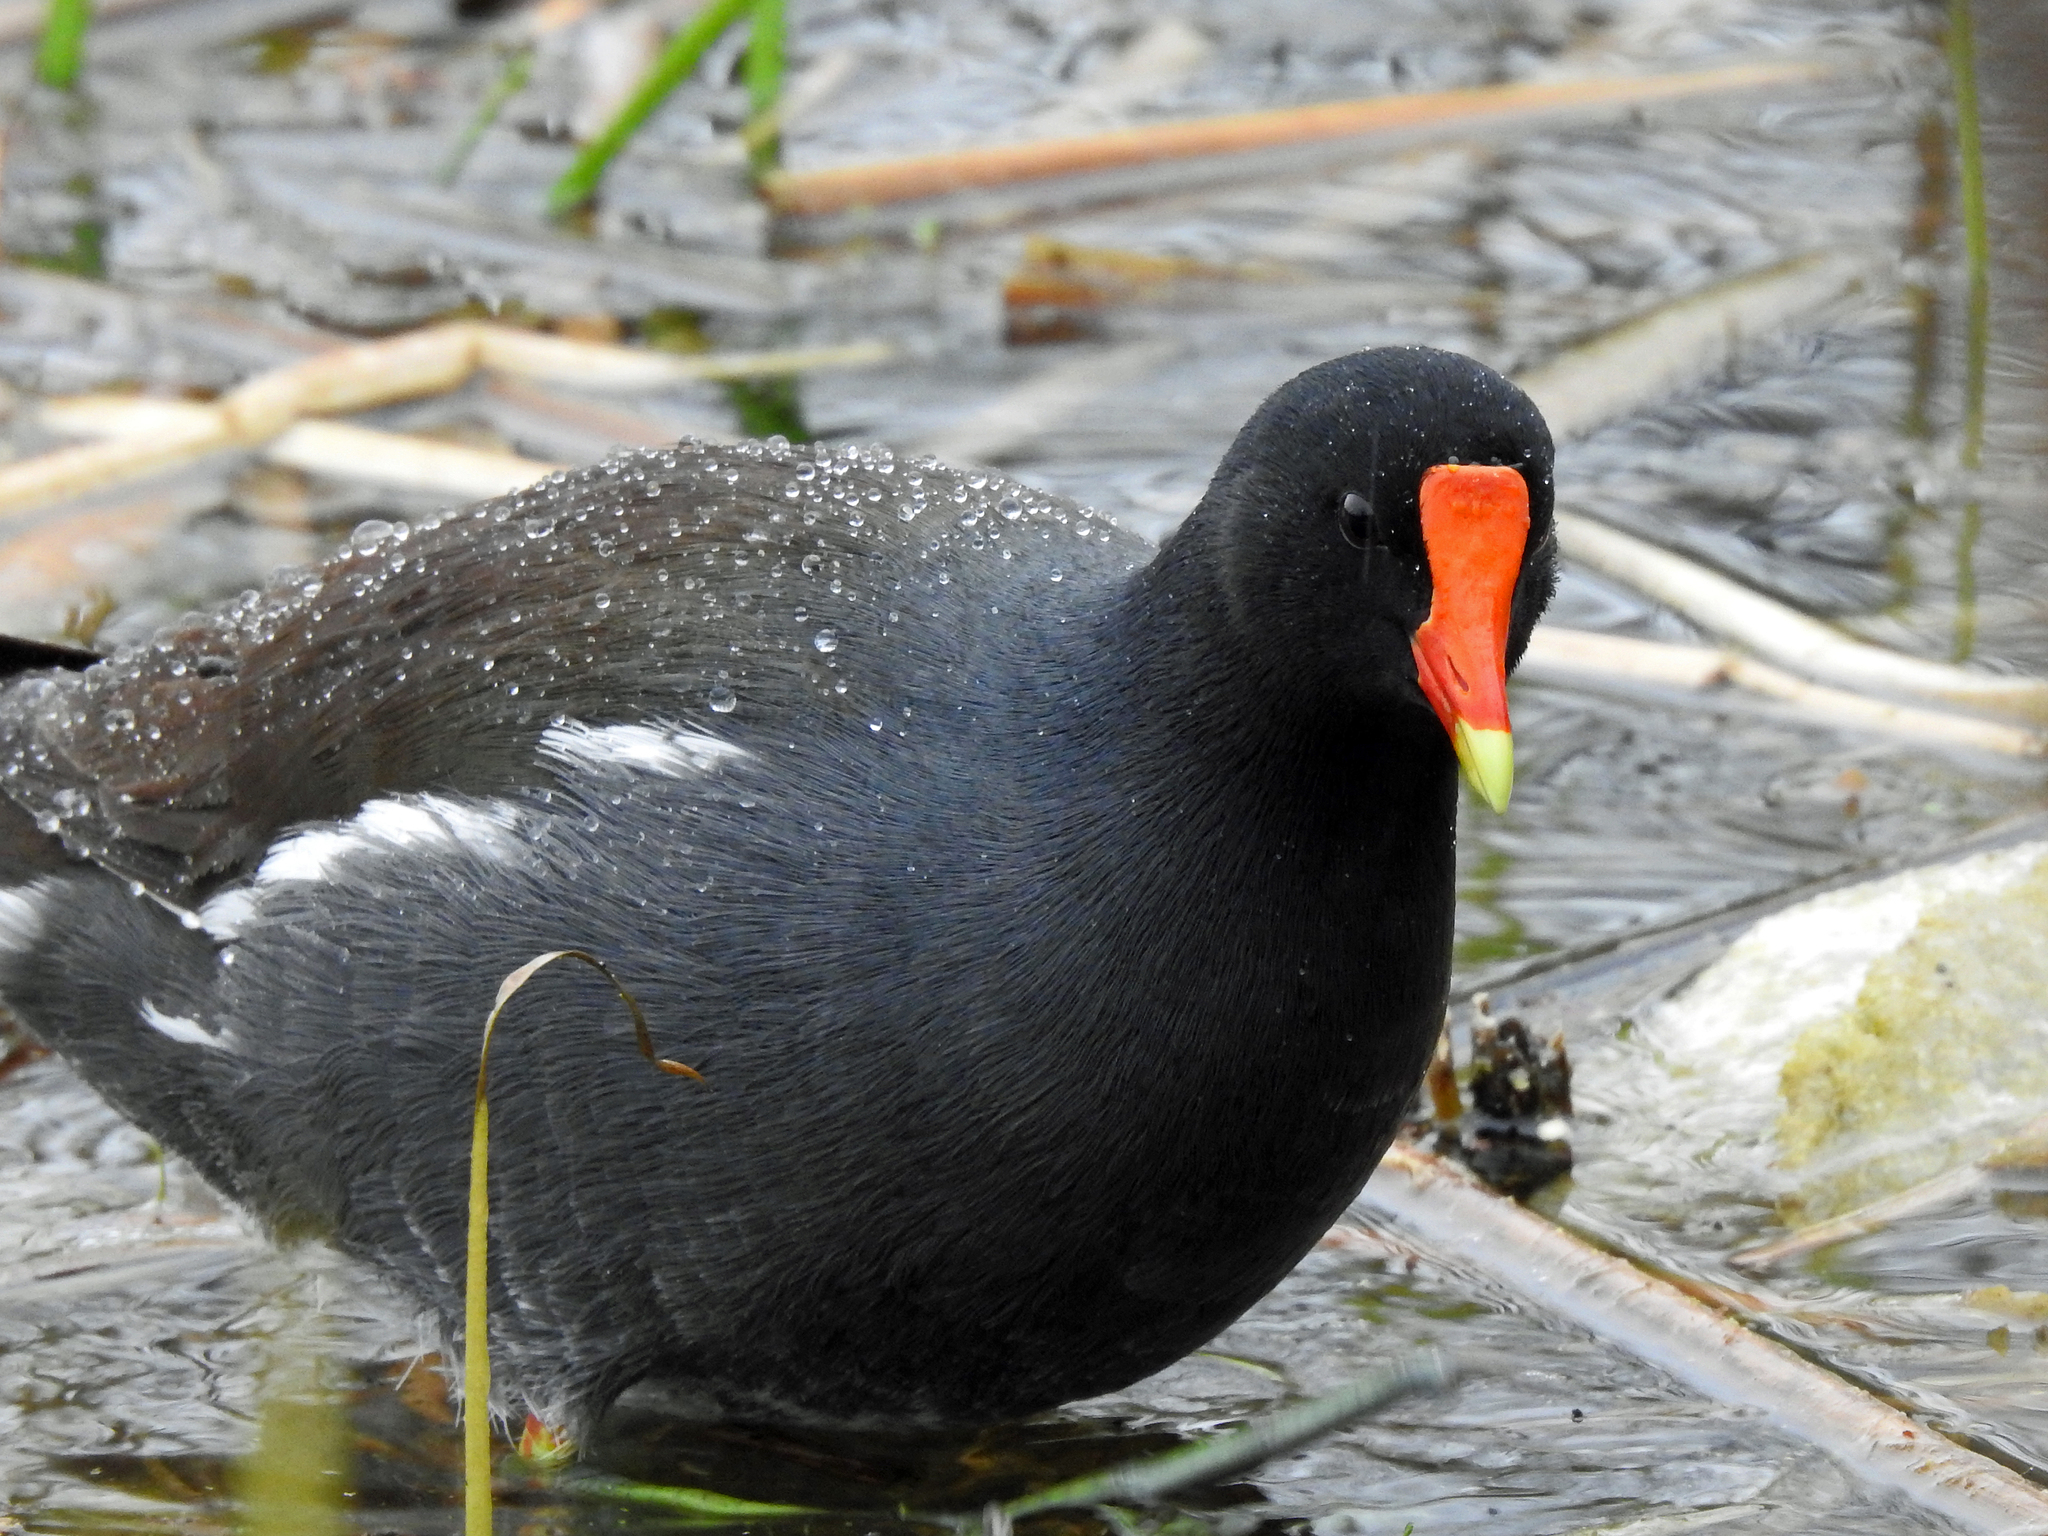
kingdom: Animalia
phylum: Chordata
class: Aves
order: Gruiformes
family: Rallidae
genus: Gallinula
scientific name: Gallinula chloropus
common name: Common moorhen
